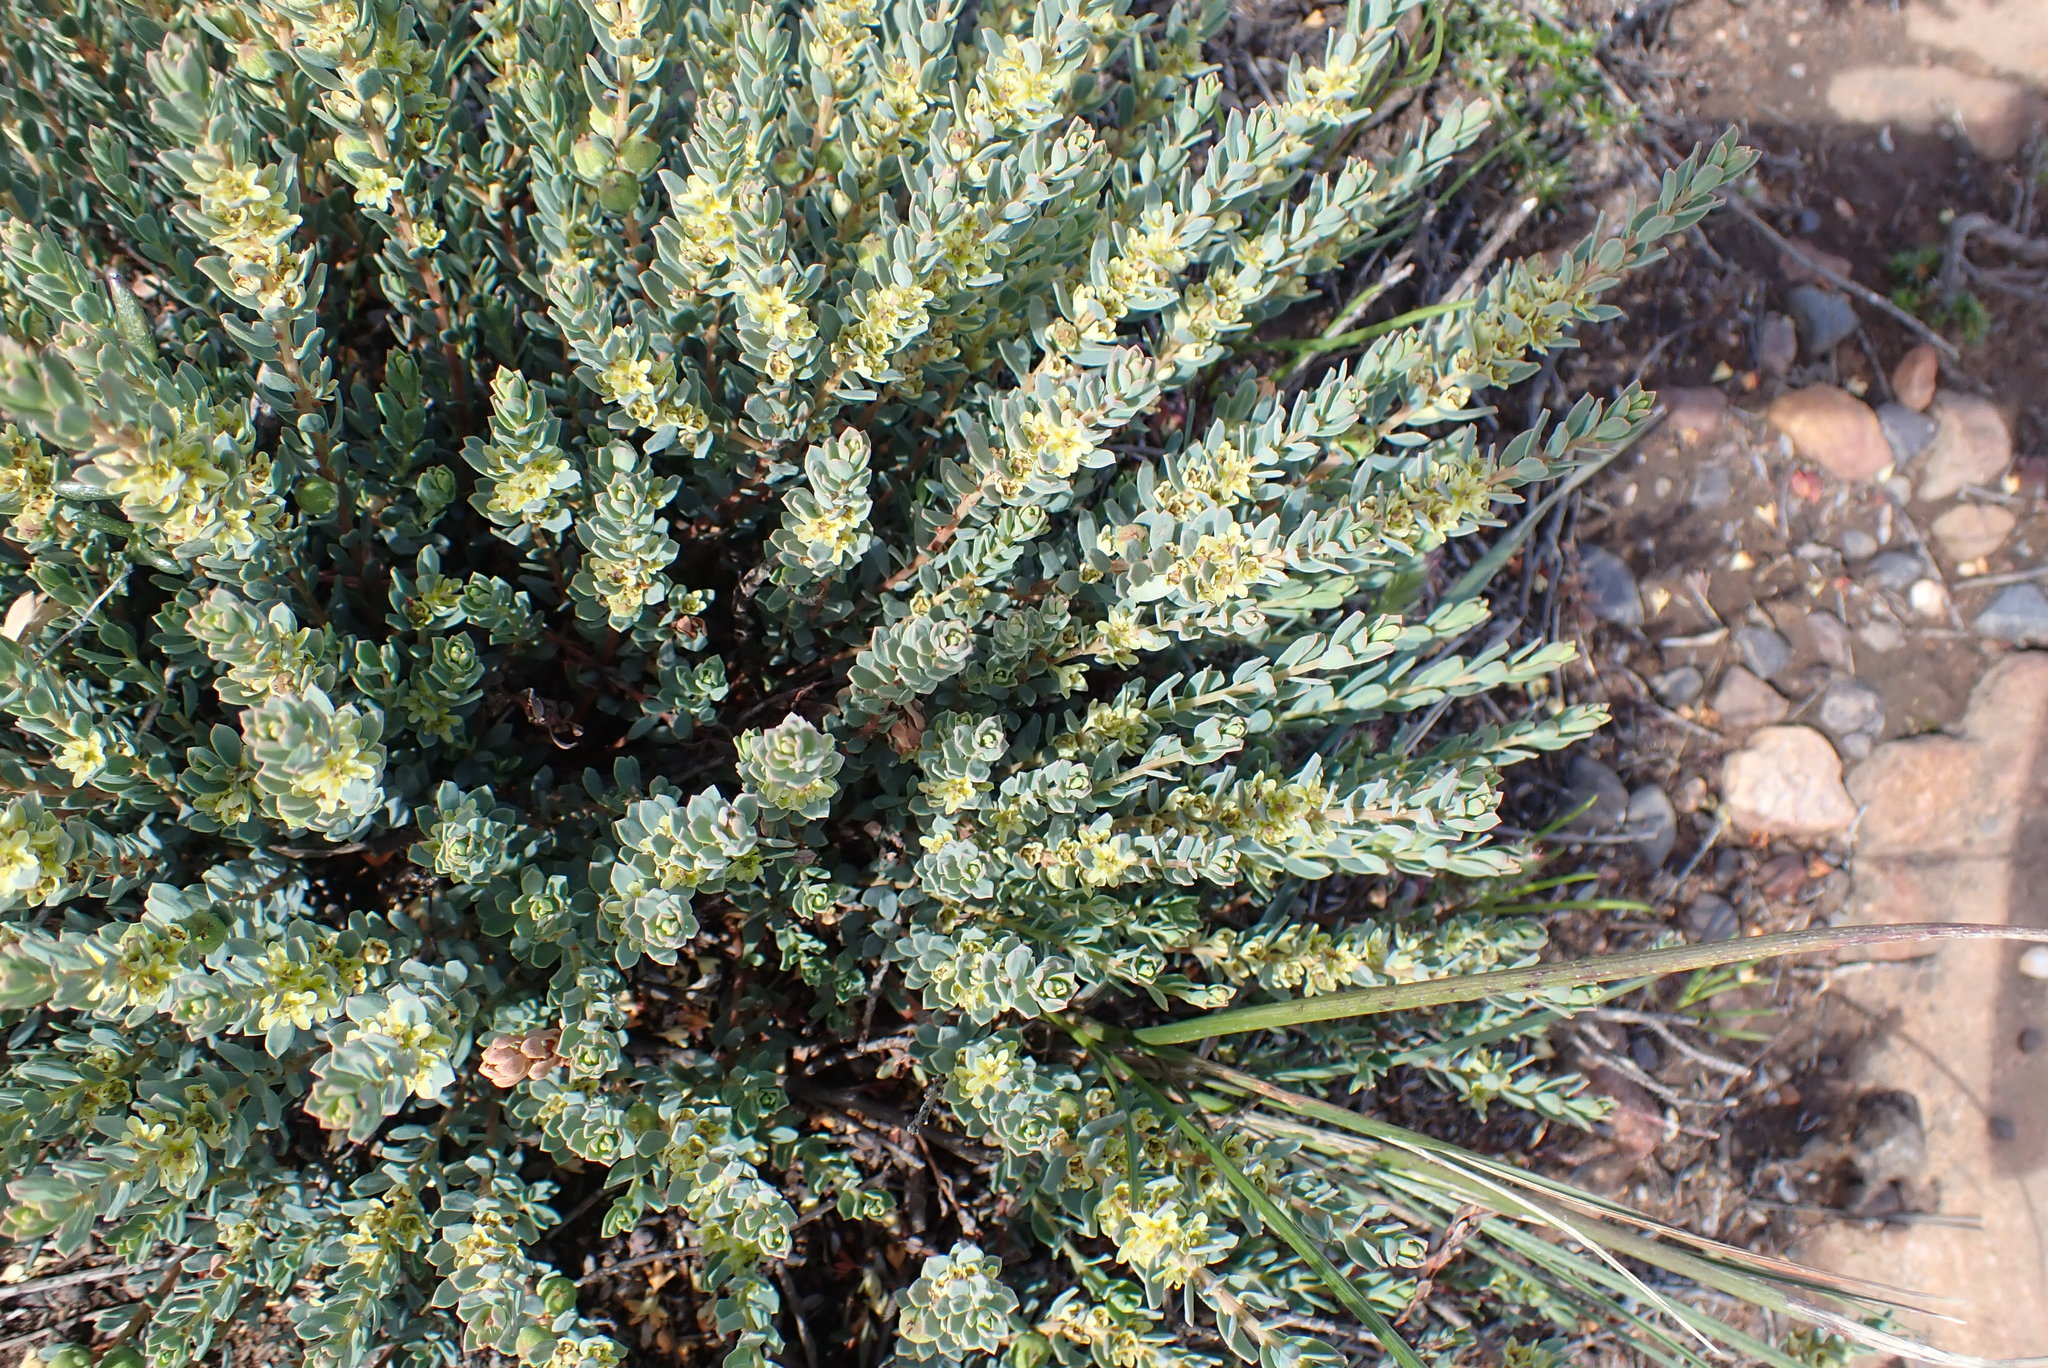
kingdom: Plantae
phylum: Tracheophyta
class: Magnoliopsida
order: Malpighiales
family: Peraceae
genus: Clutia
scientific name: Clutia laxa
